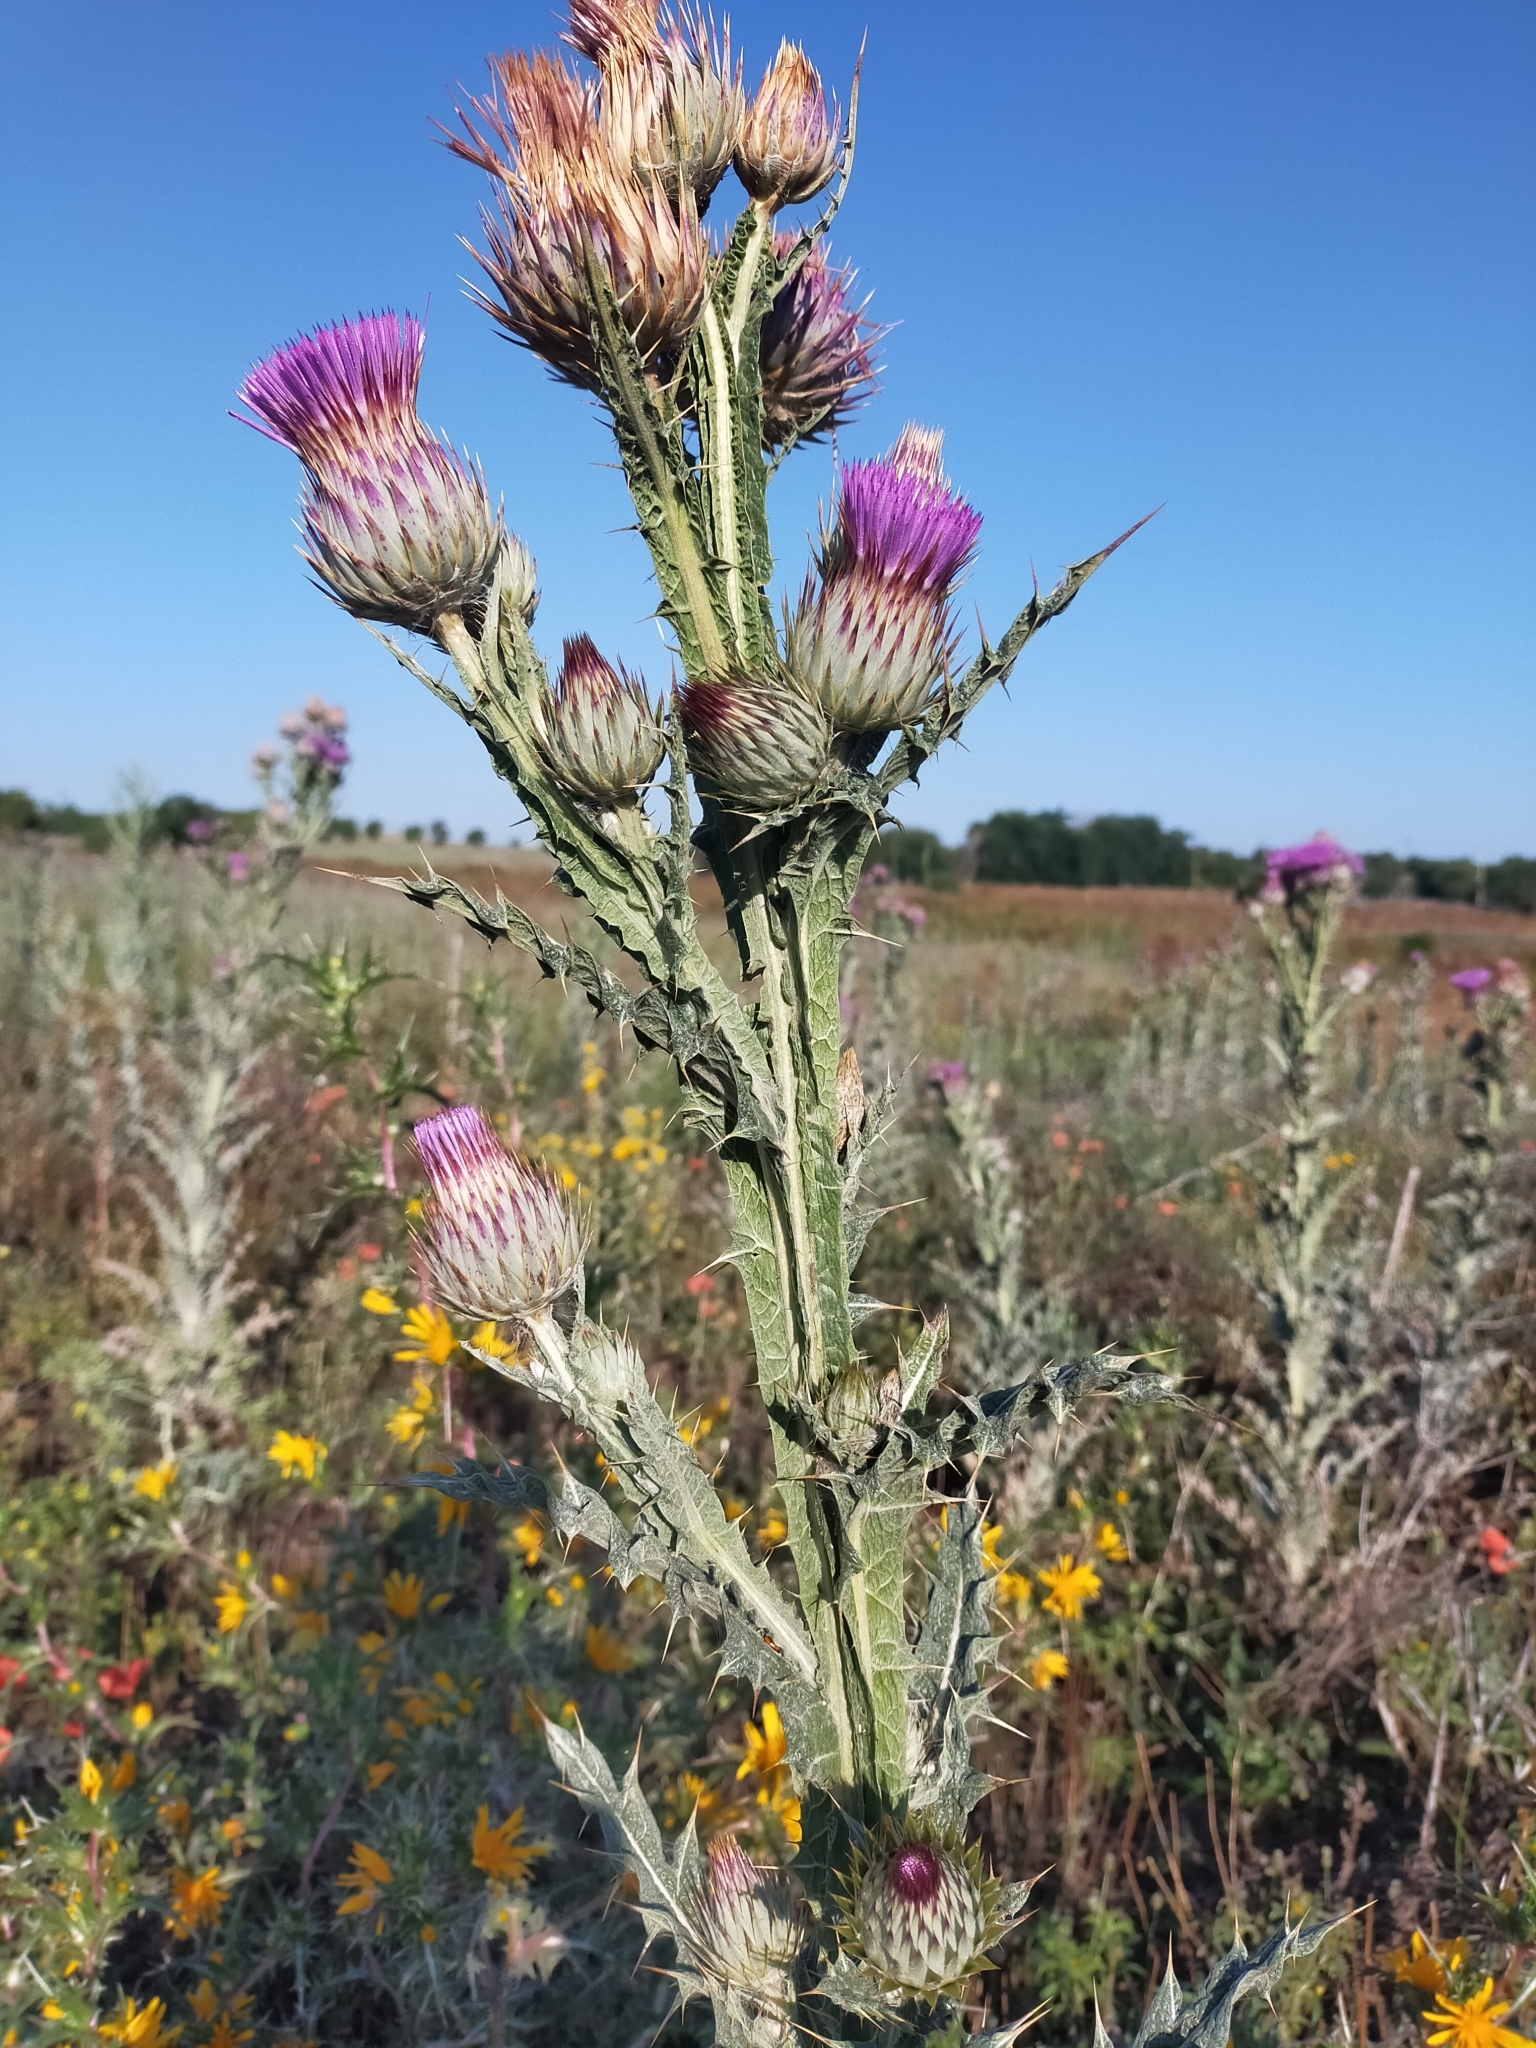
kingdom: Plantae
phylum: Tracheophyta
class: Magnoliopsida
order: Asterales
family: Asteraceae
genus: Onopordum
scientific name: Onopordum nervosum
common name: Reticulate thistle
